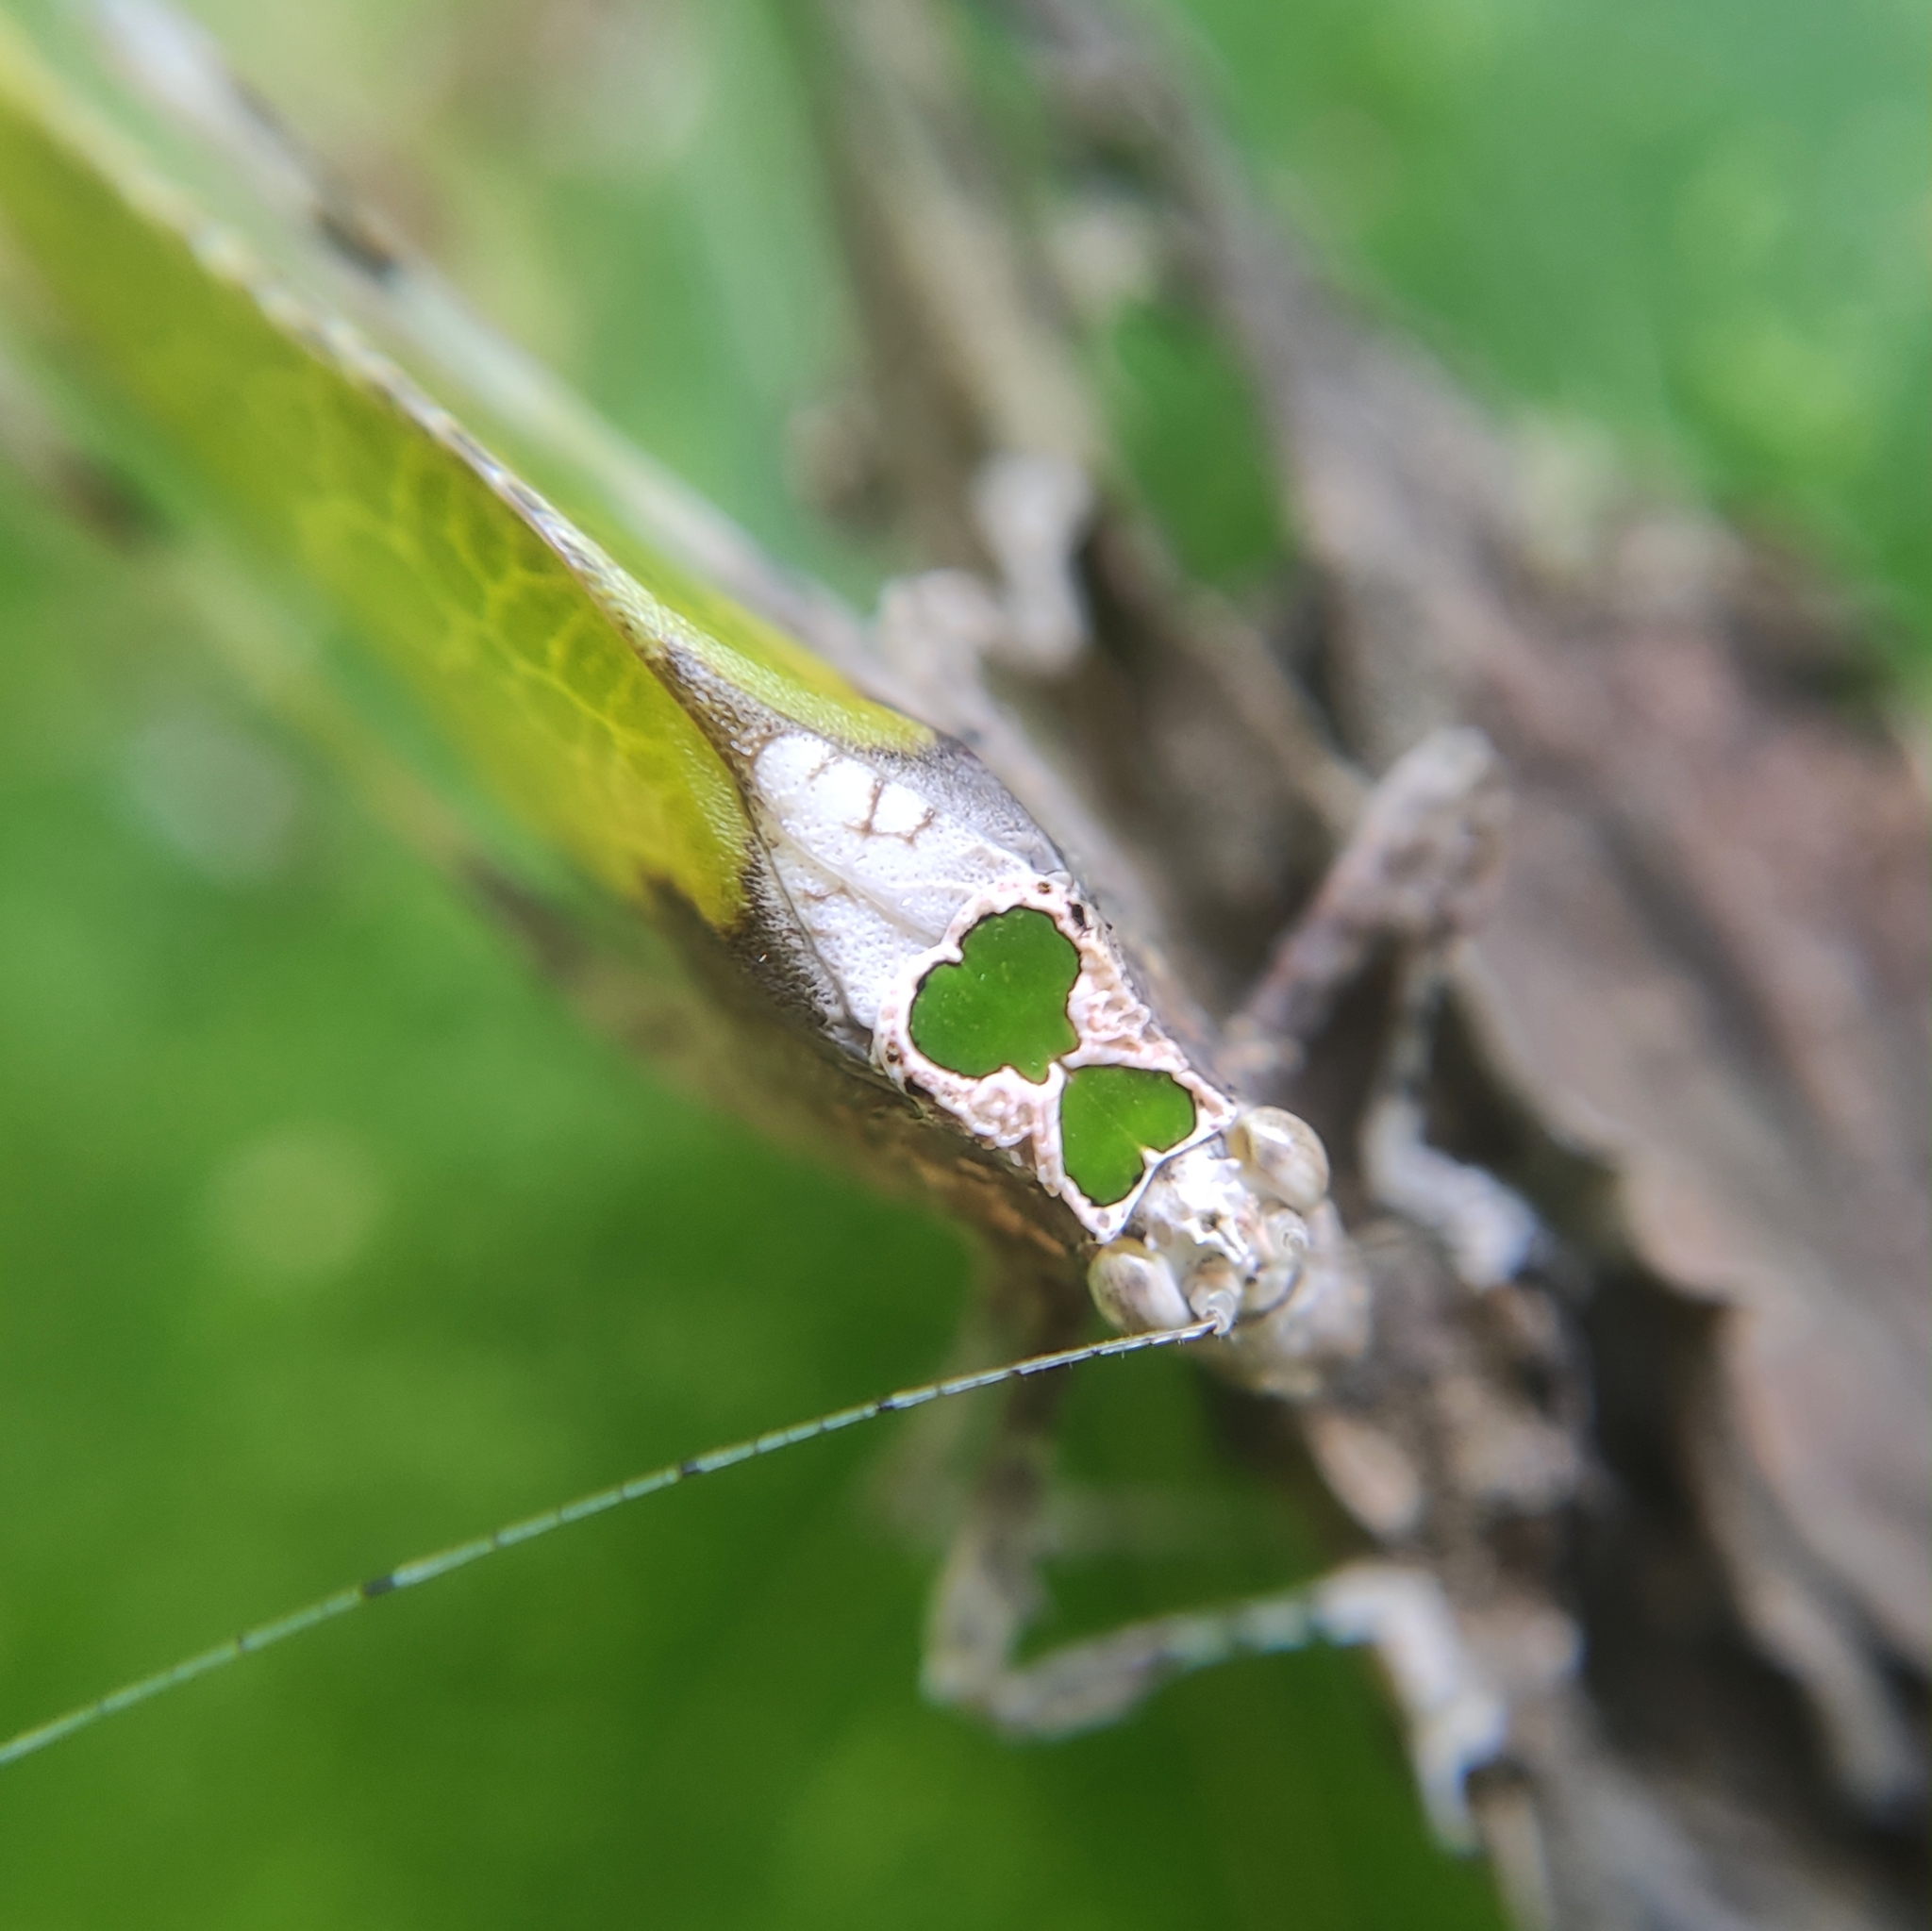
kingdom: Animalia
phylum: Arthropoda
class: Insecta
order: Orthoptera
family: Tettigoniidae
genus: Pycnopalpa
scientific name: Pycnopalpa bicordata
